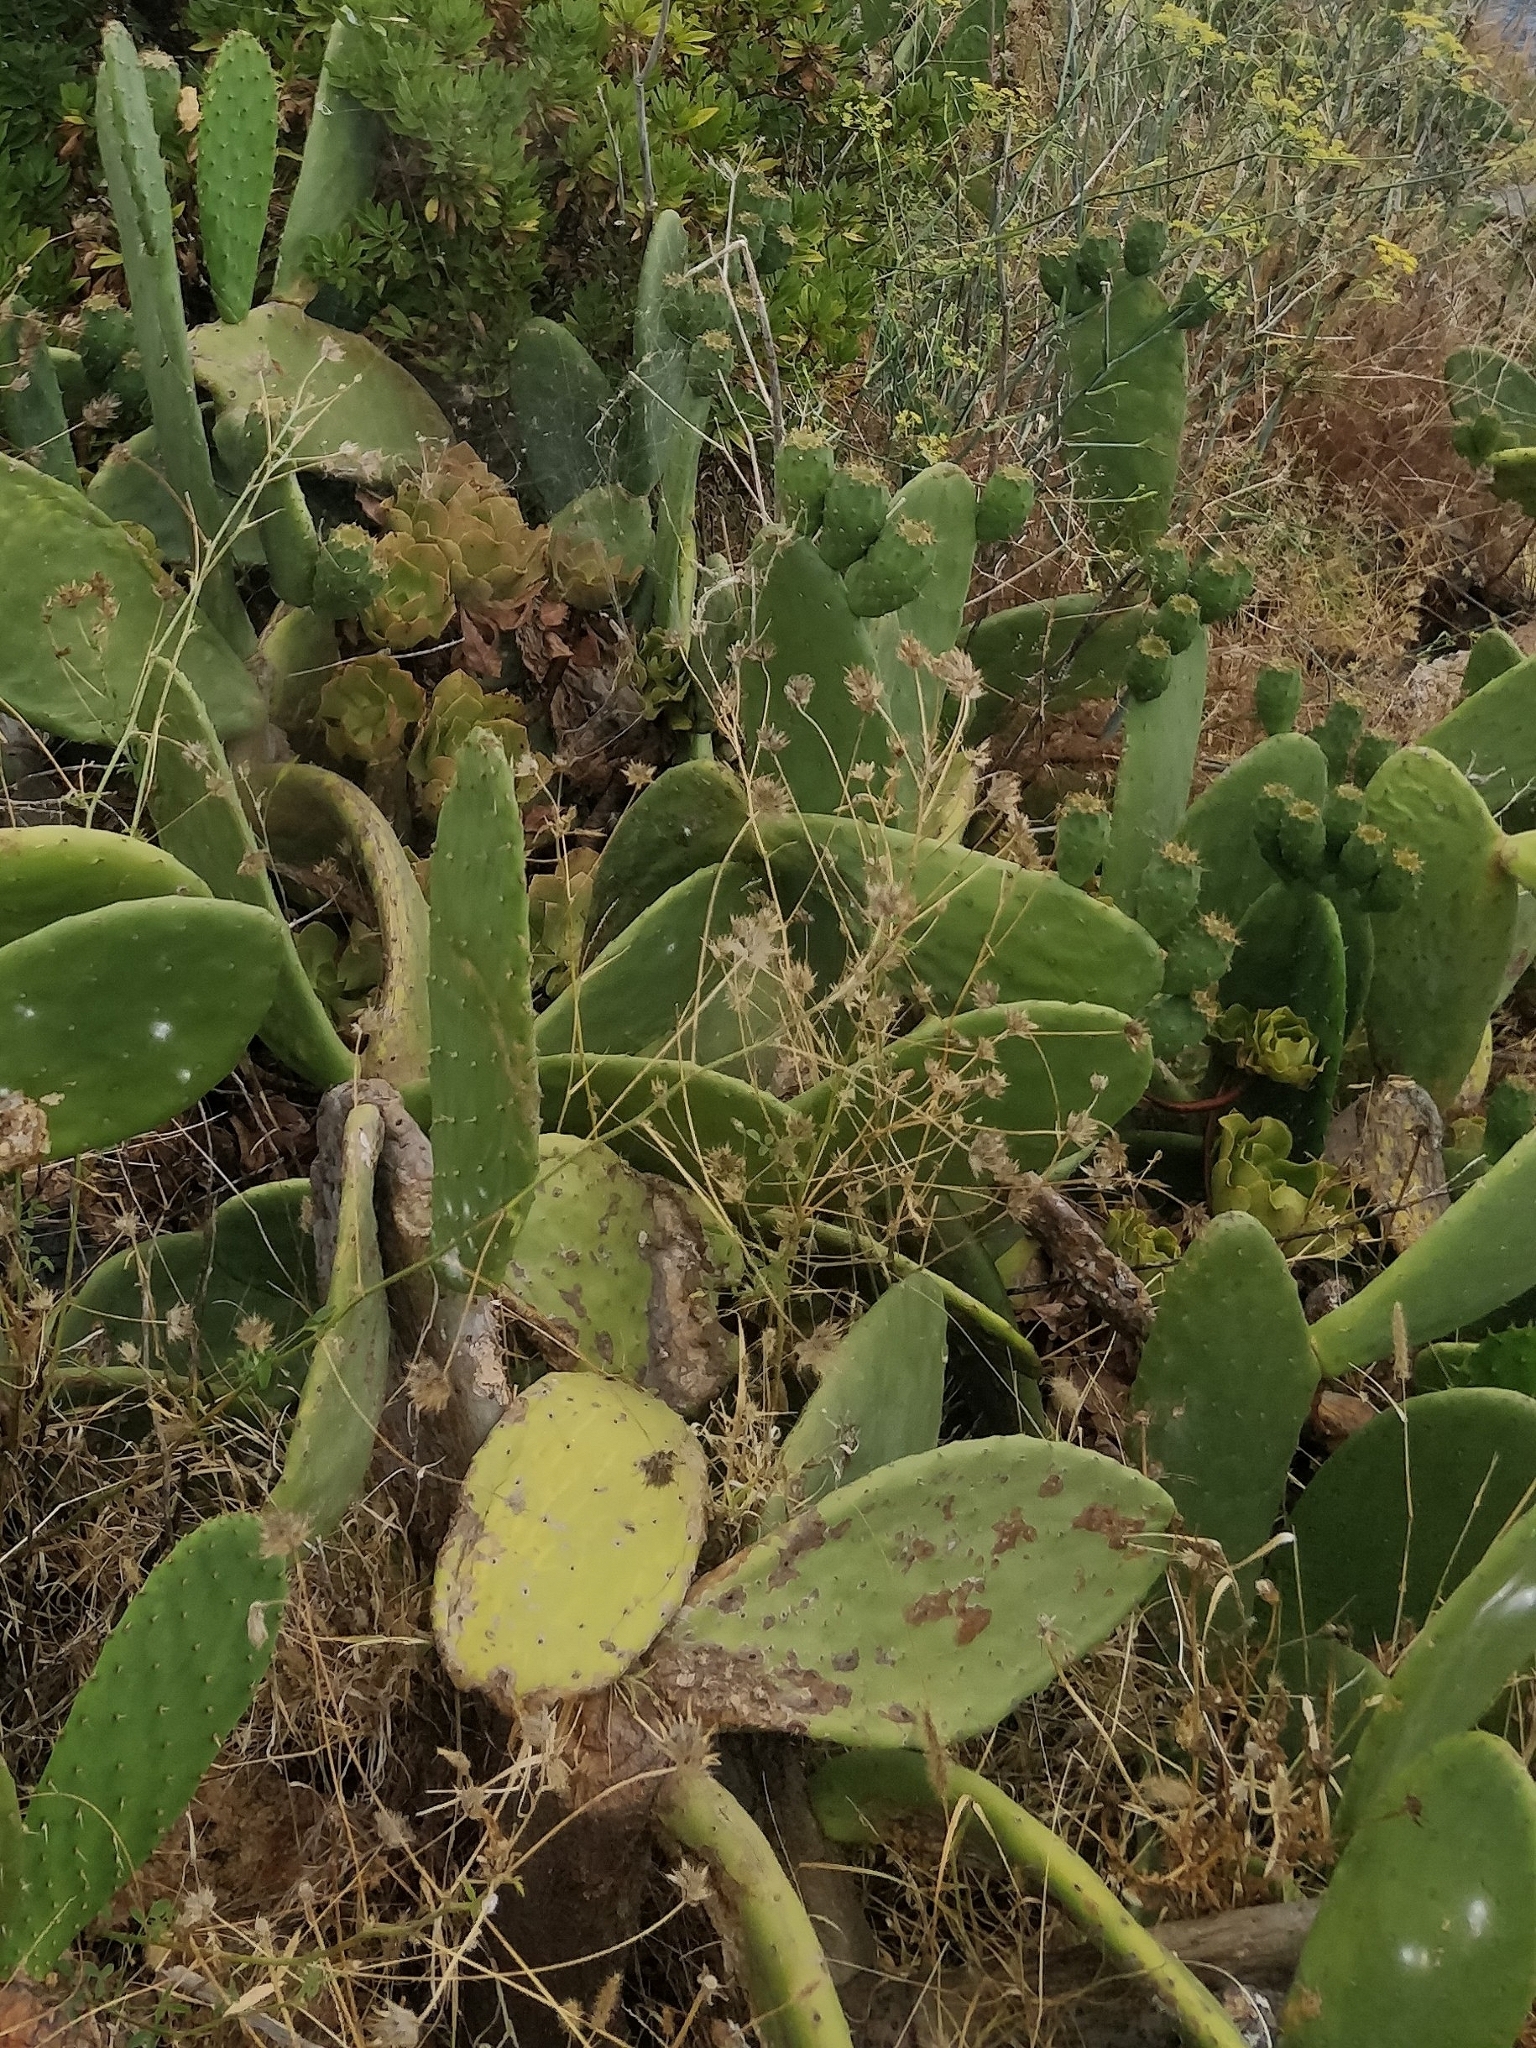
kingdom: Plantae
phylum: Tracheophyta
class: Magnoliopsida
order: Caryophyllales
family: Cactaceae
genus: Opuntia
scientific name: Opuntia ficus-indica
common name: Barbary fig
